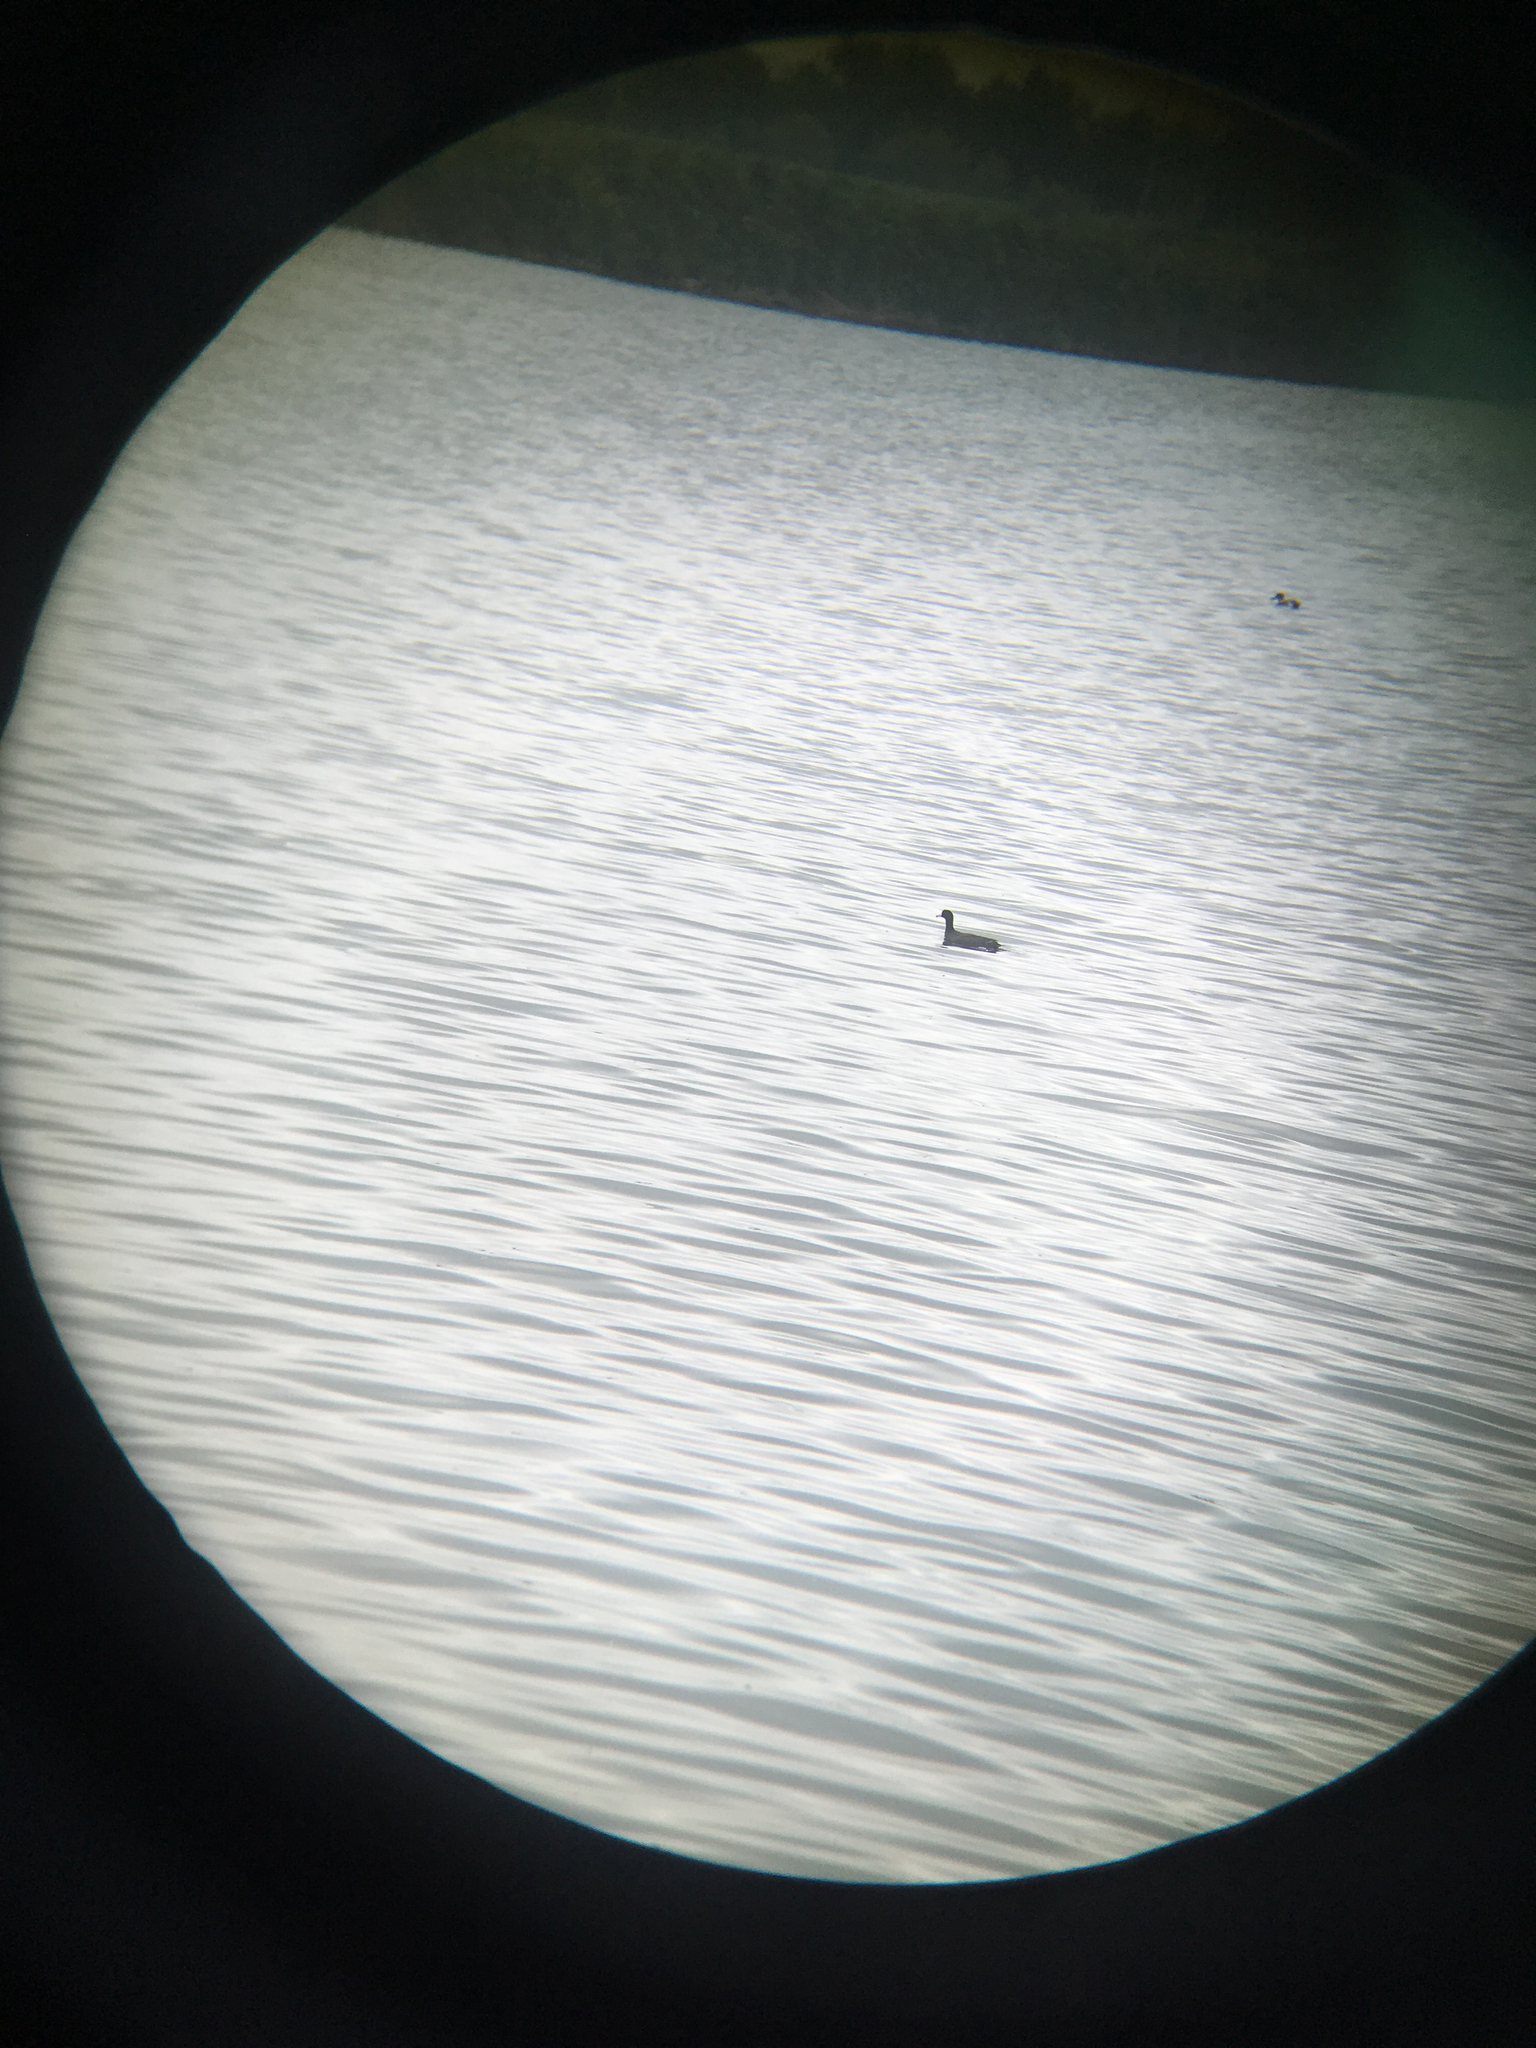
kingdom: Animalia
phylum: Chordata
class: Aves
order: Gruiformes
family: Rallidae
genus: Fulica
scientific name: Fulica americana
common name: American coot
